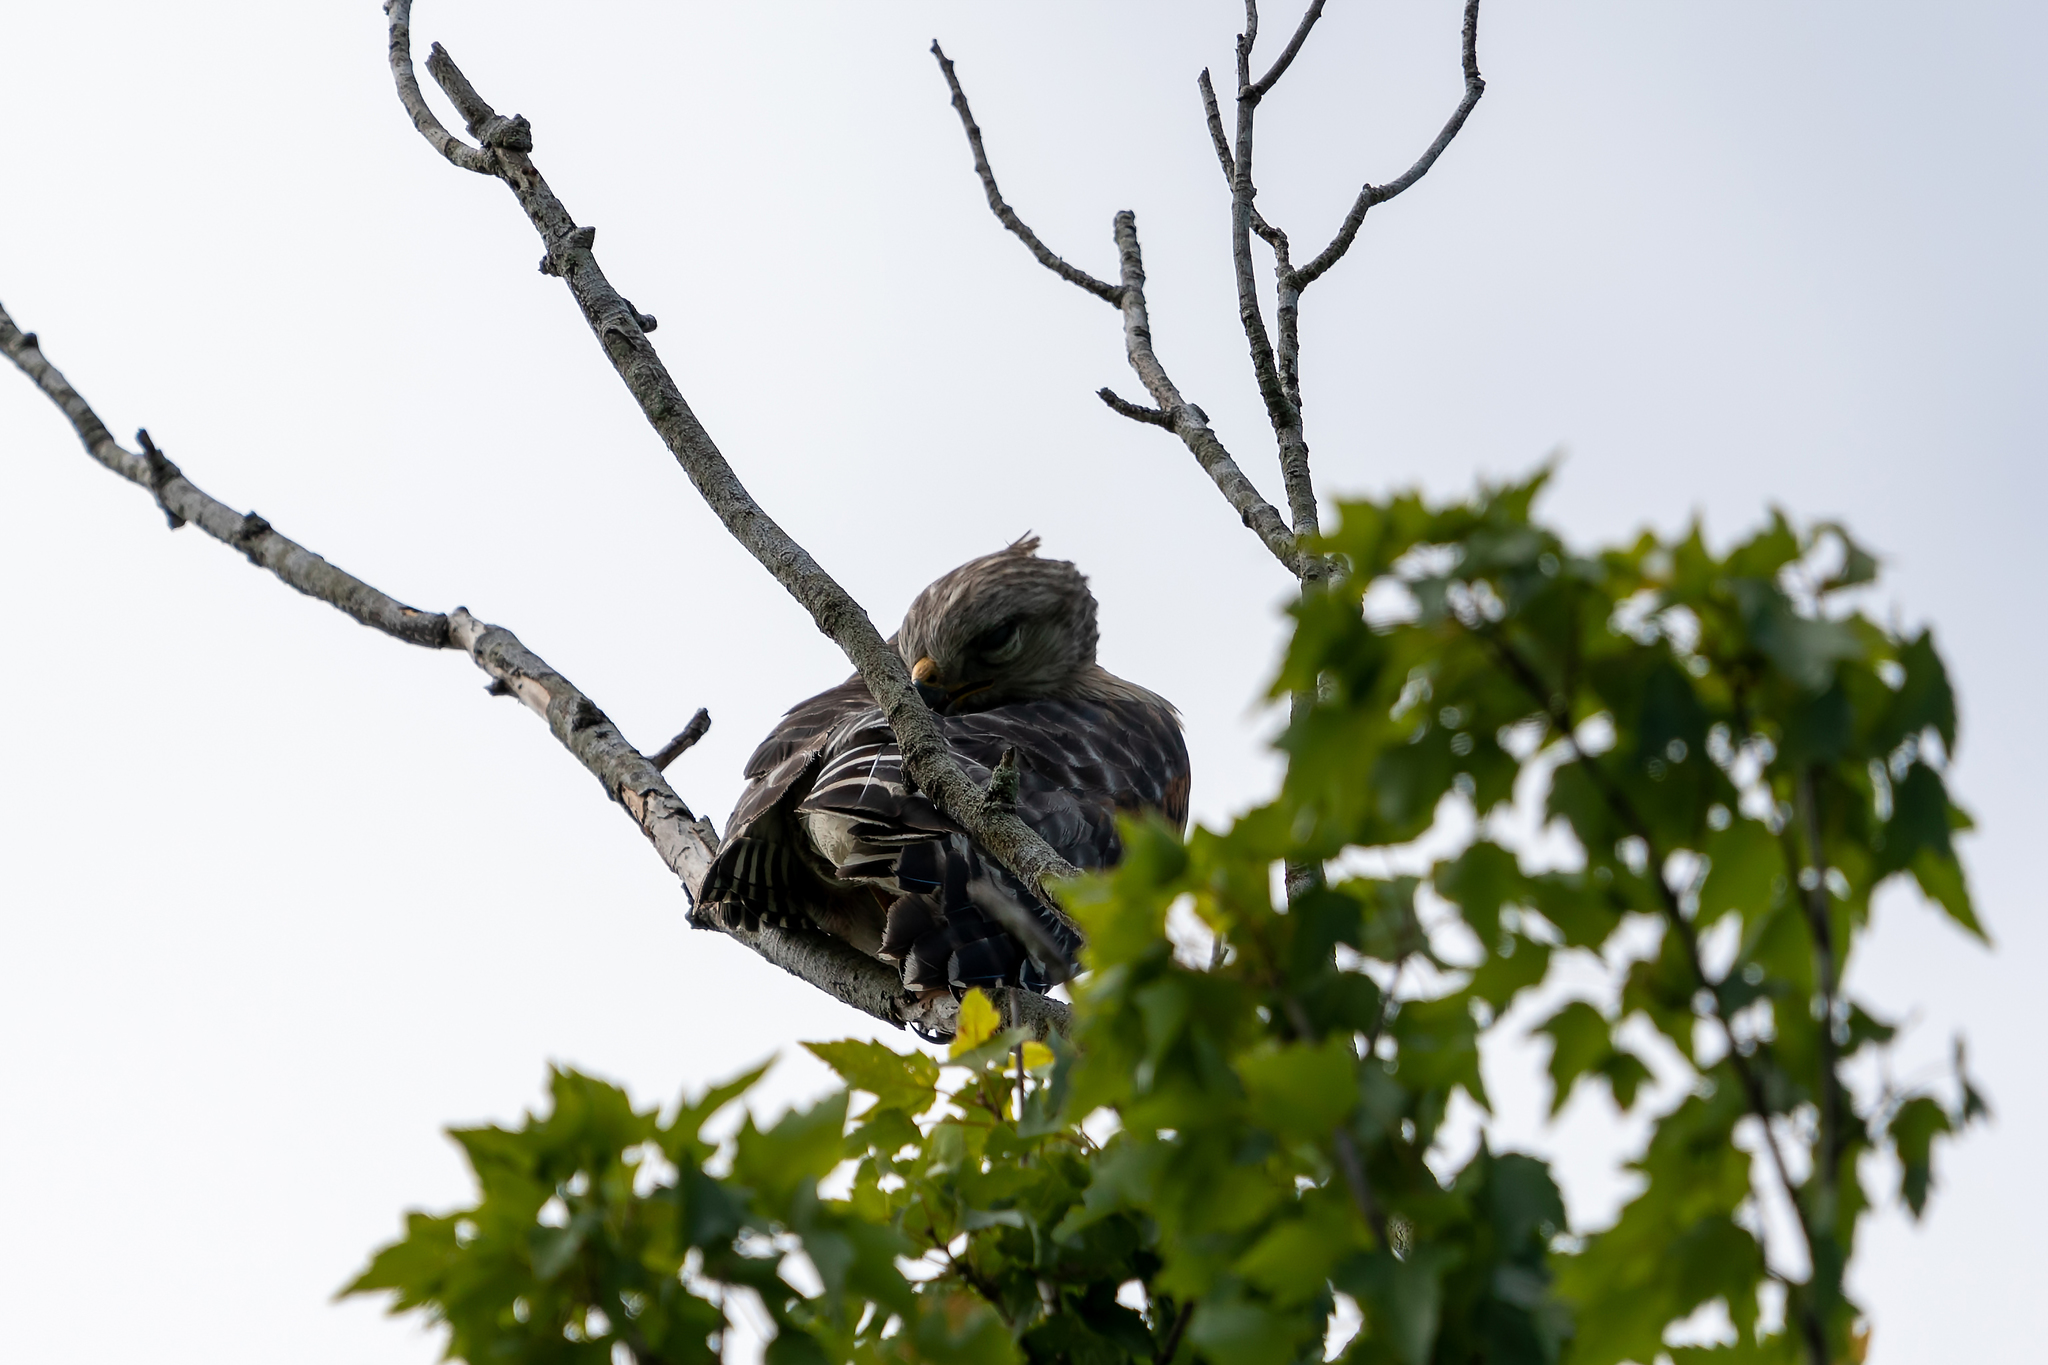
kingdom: Animalia
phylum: Chordata
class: Aves
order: Accipitriformes
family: Accipitridae
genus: Buteo
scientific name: Buteo lineatus
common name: Red-shouldered hawk
